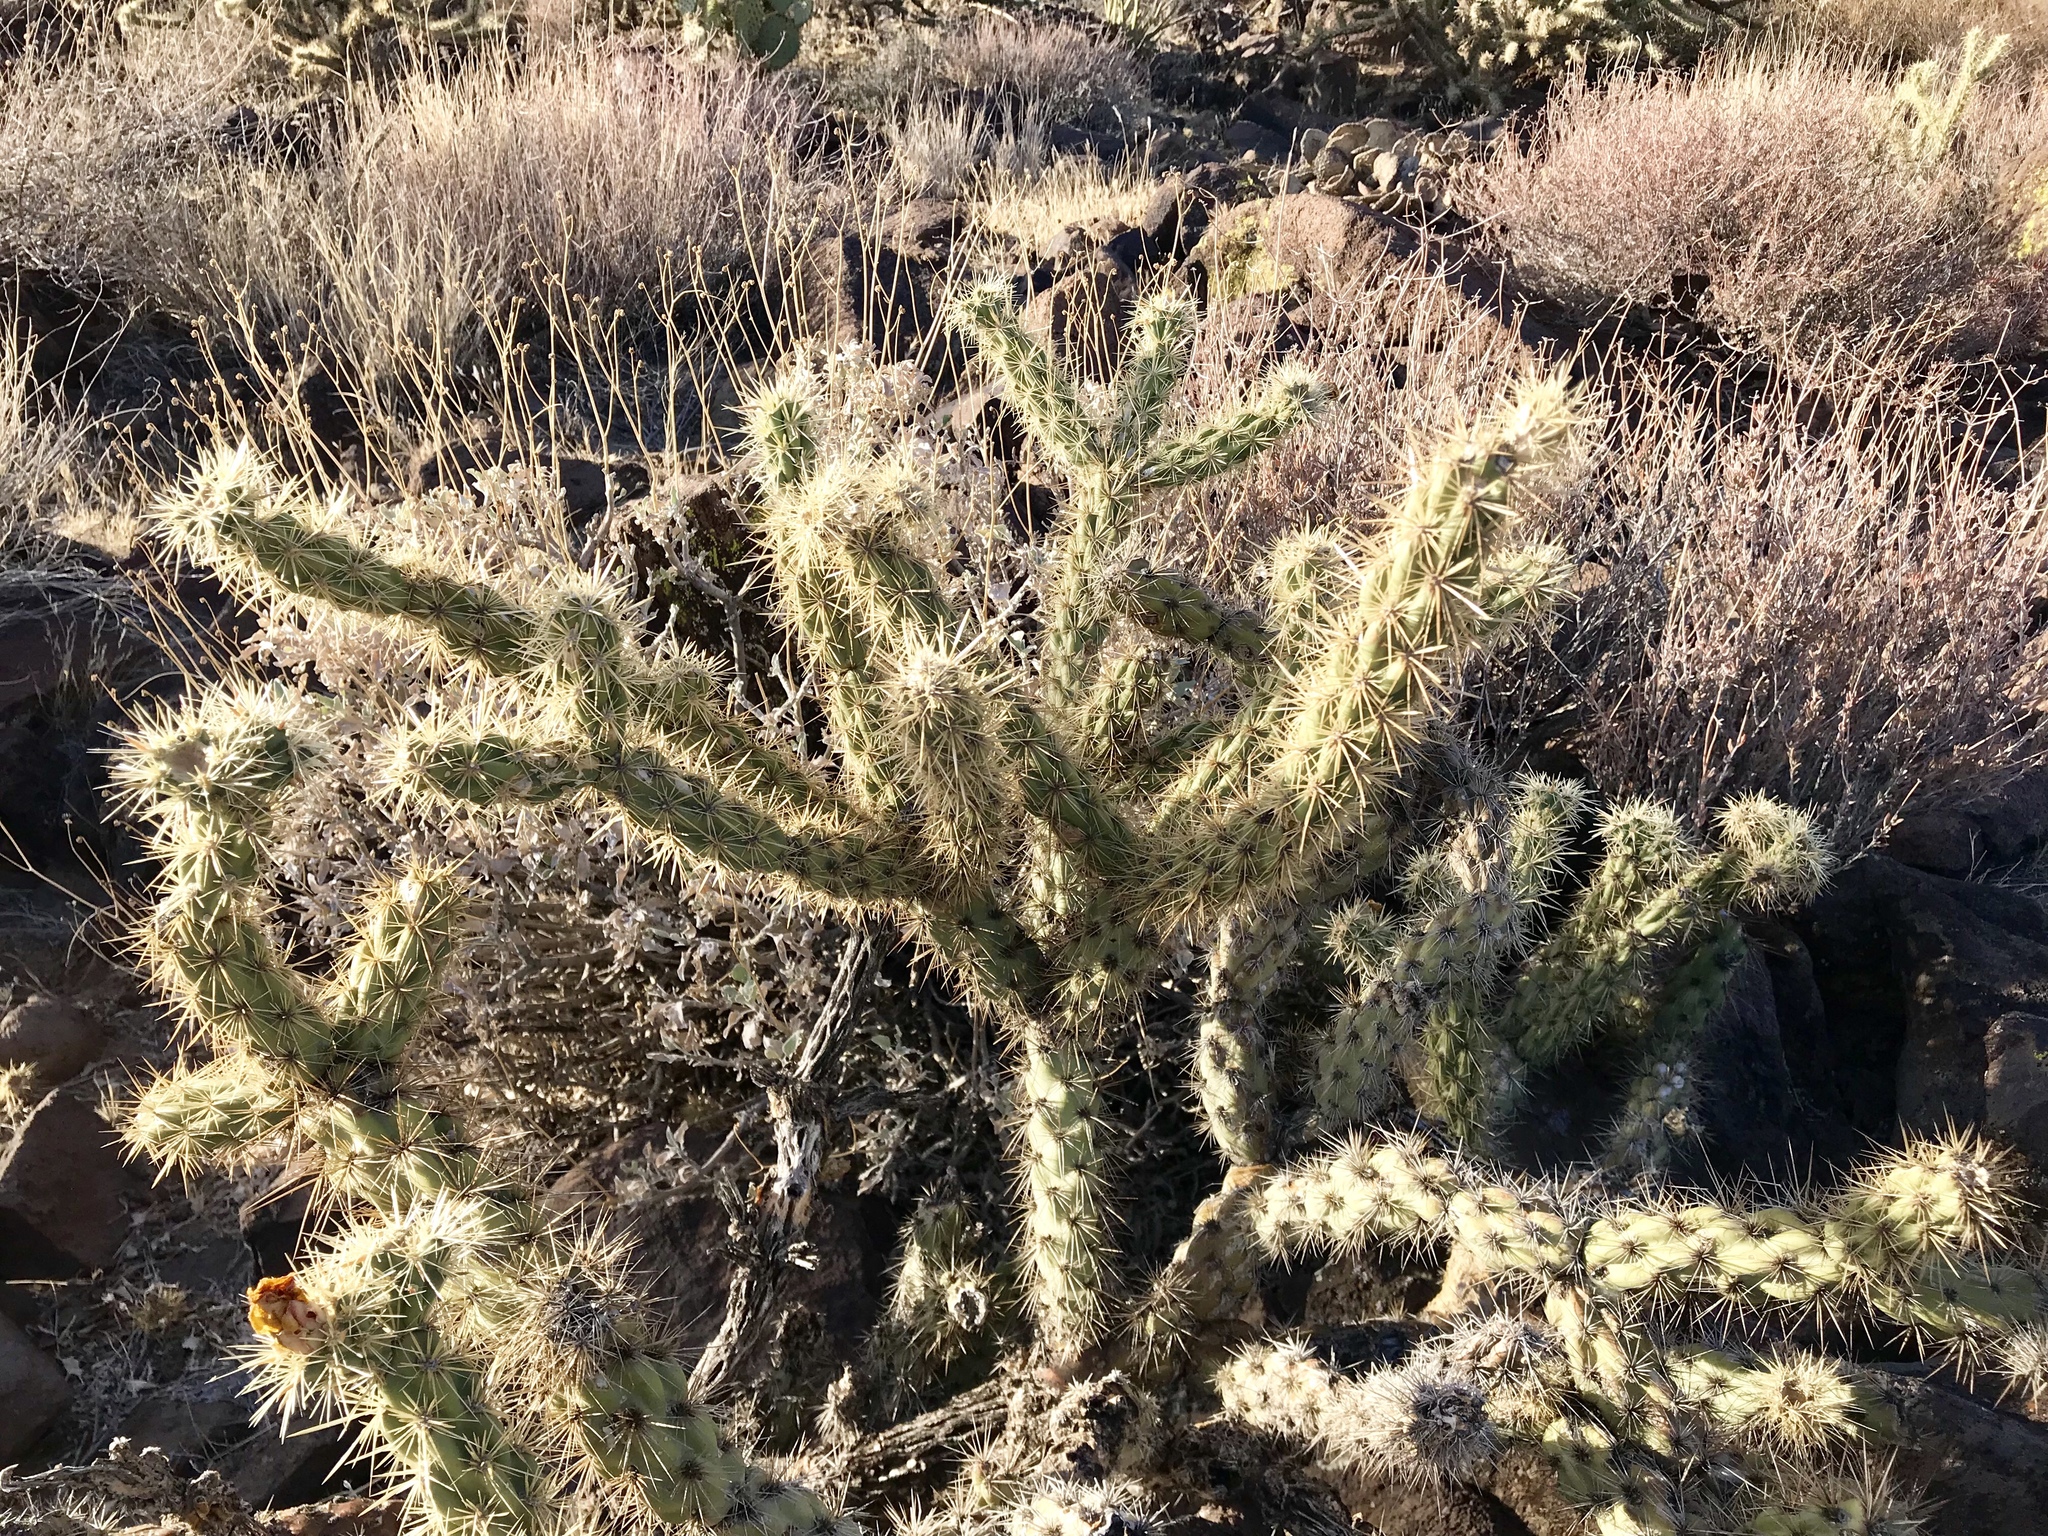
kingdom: Plantae
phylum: Tracheophyta
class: Magnoliopsida
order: Caryophyllales
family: Cactaceae
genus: Cylindropuntia
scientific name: Cylindropuntia acanthocarpa
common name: Buckhorn cholla
